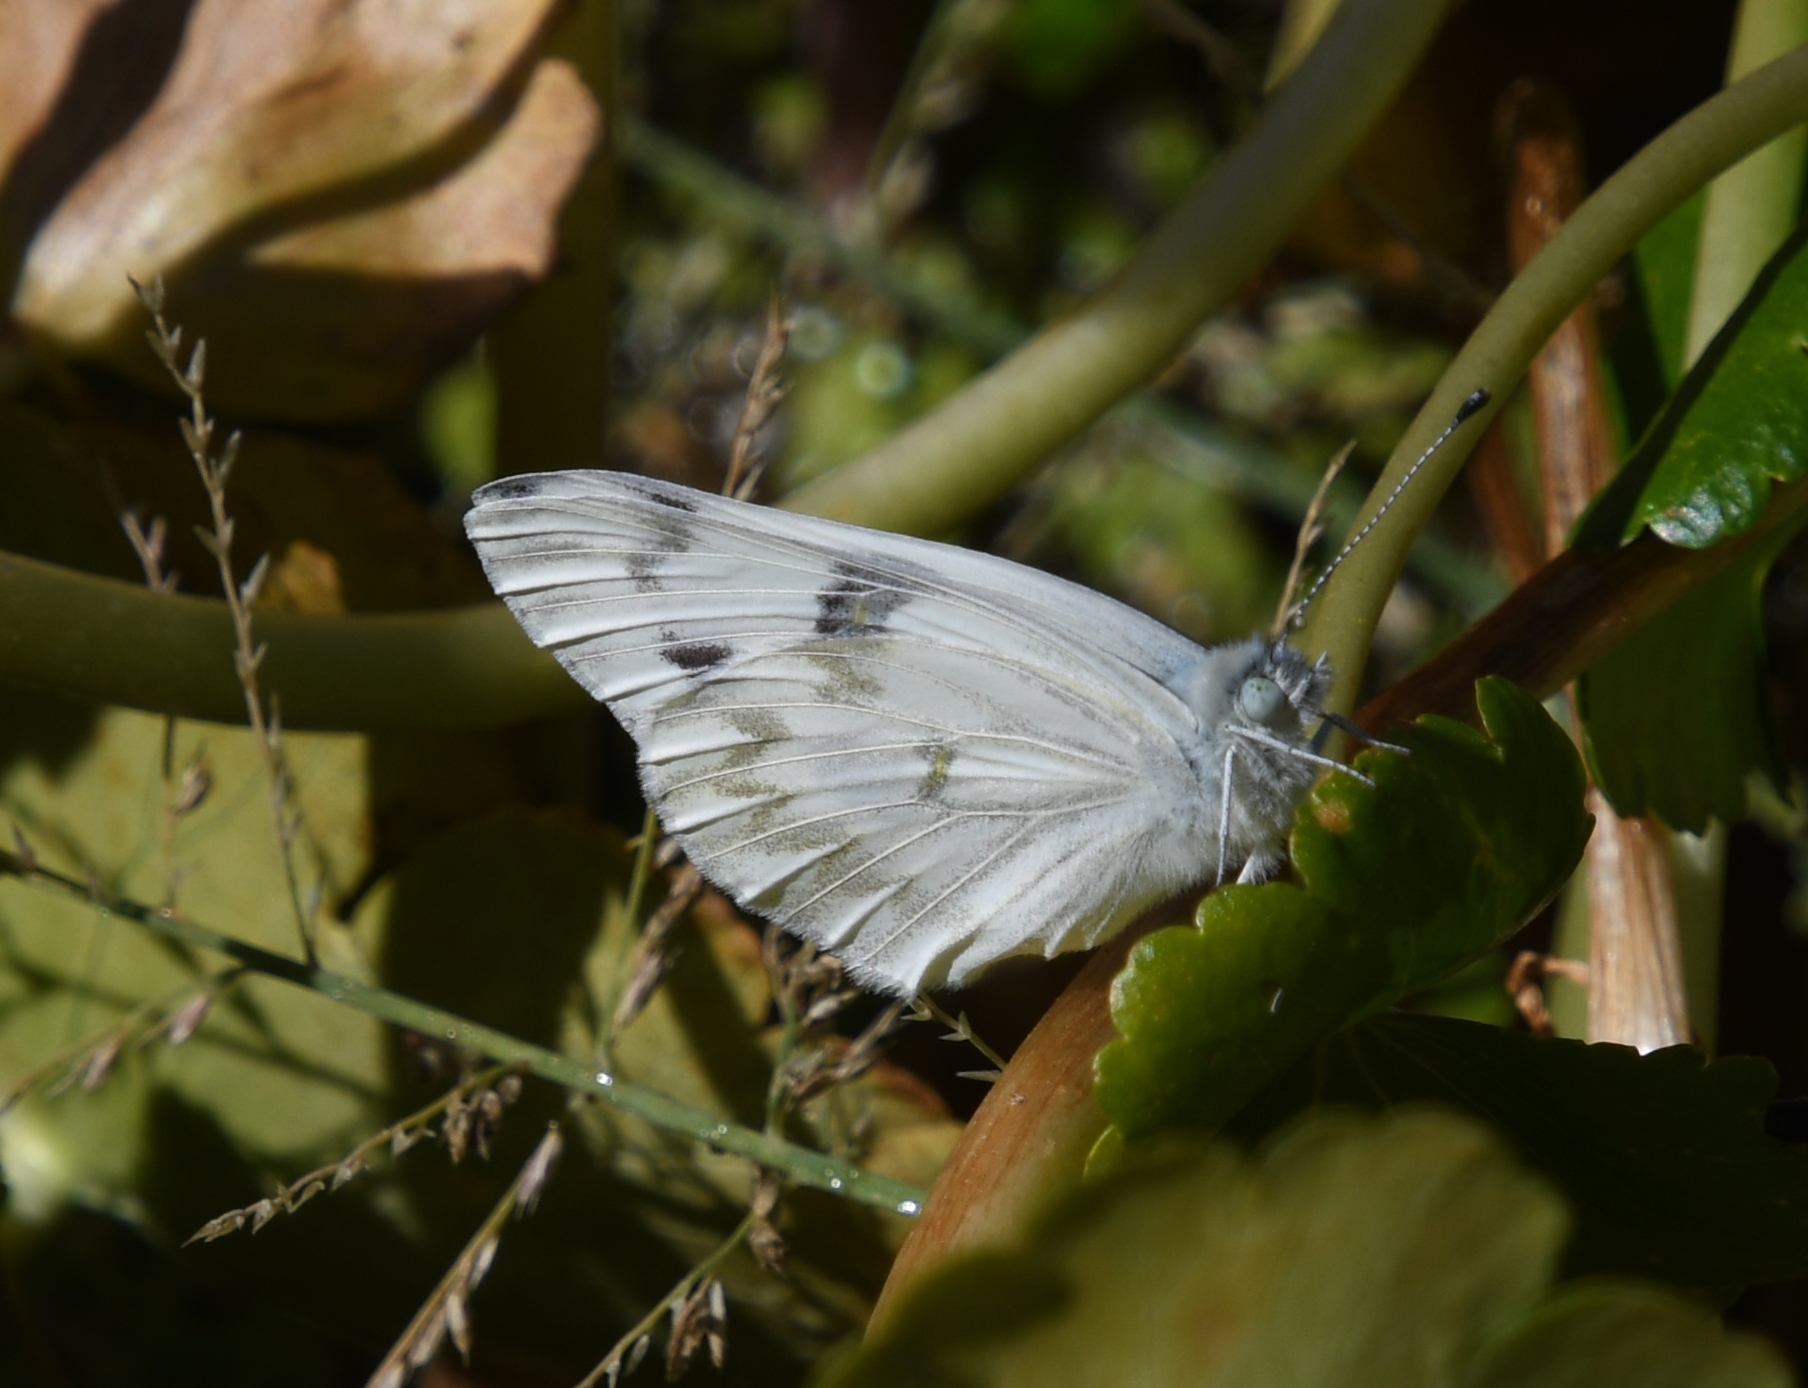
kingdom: Animalia
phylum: Arthropoda
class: Insecta
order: Lepidoptera
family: Pieridae
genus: Pontia
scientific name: Pontia protodice
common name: Checkered white
